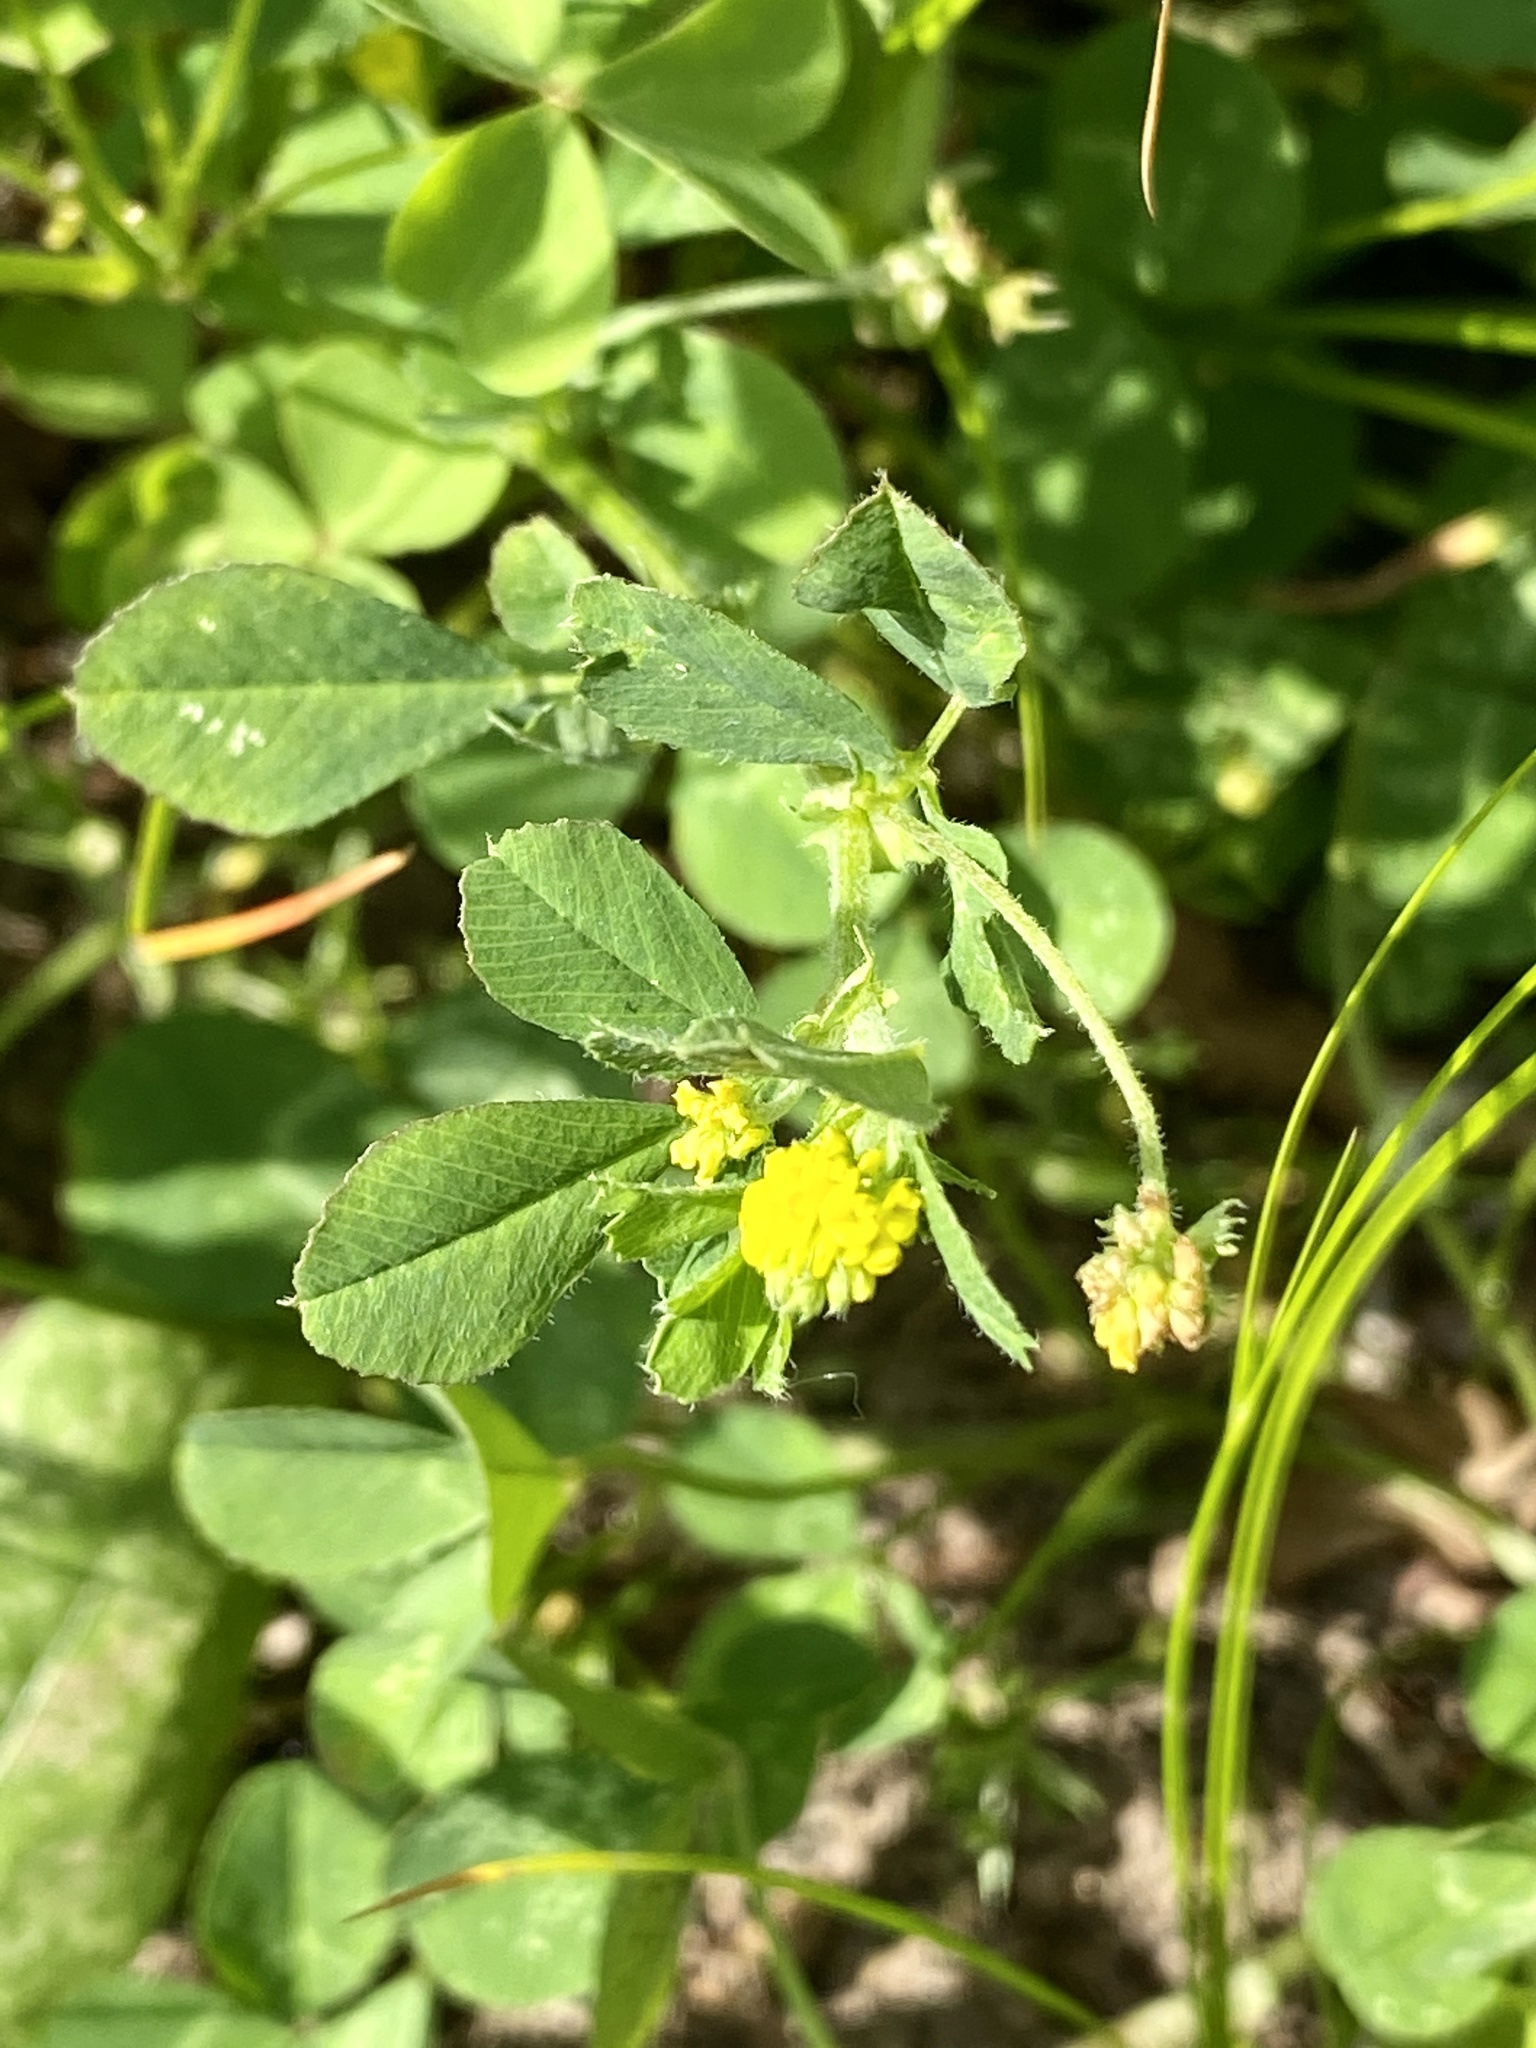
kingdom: Plantae
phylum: Tracheophyta
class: Magnoliopsida
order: Fabales
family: Fabaceae
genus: Medicago
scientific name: Medicago lupulina
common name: Black medick
